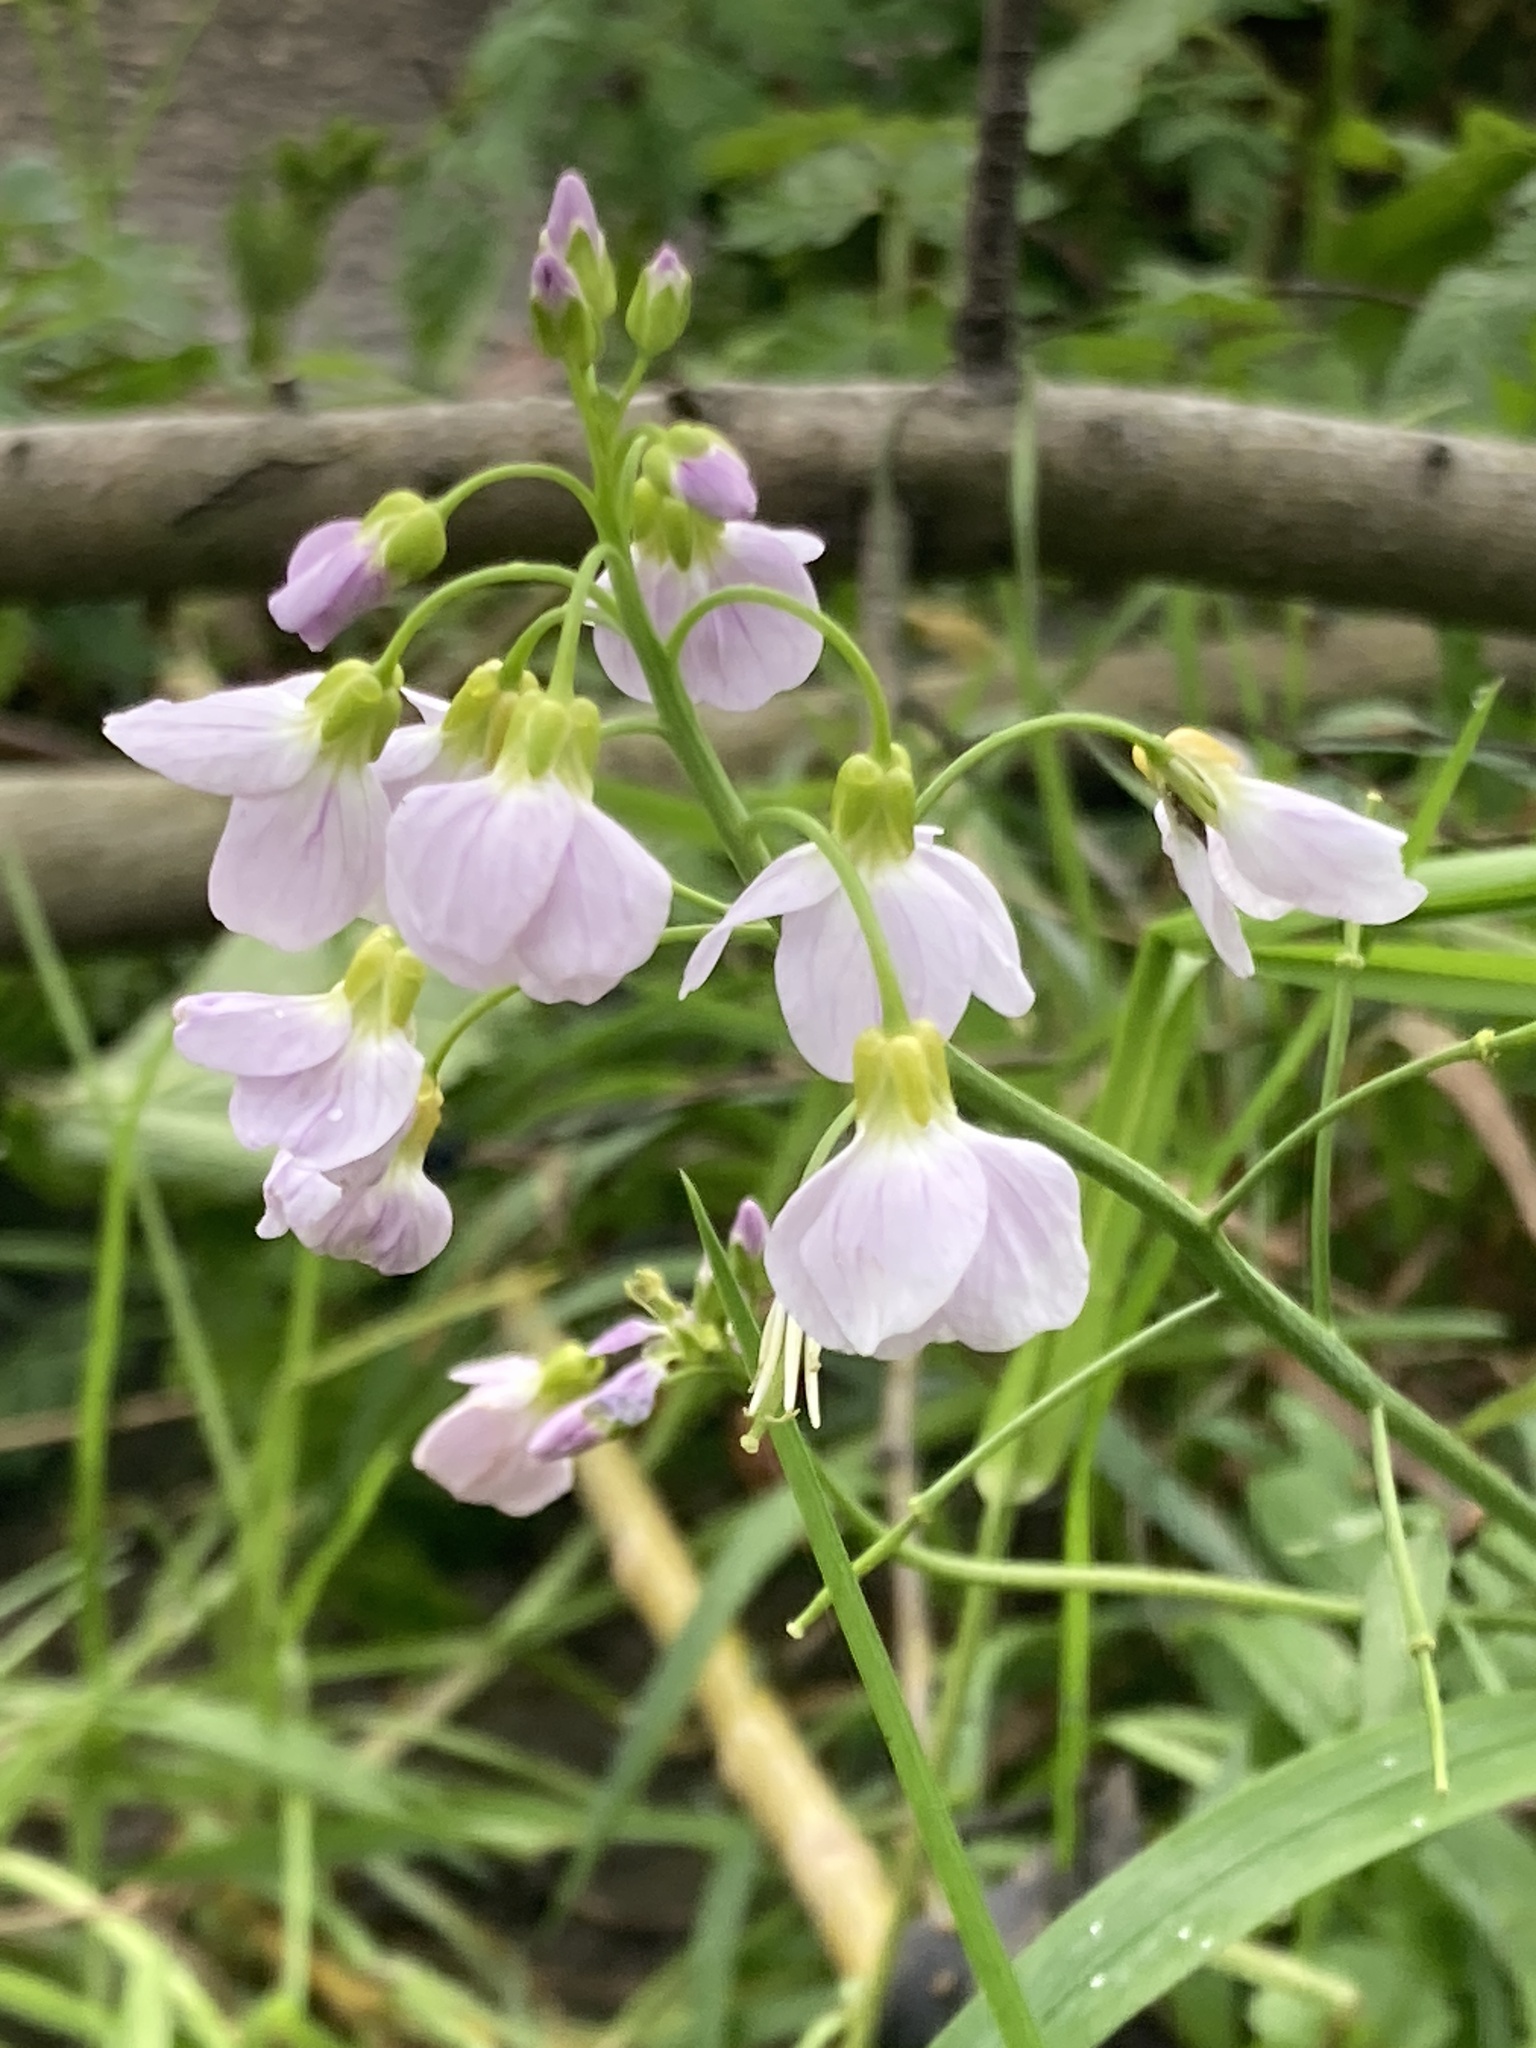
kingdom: Plantae
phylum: Tracheophyta
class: Magnoliopsida
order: Brassicales
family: Brassicaceae
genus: Cardamine
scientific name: Cardamine pratensis
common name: Cuckoo flower
